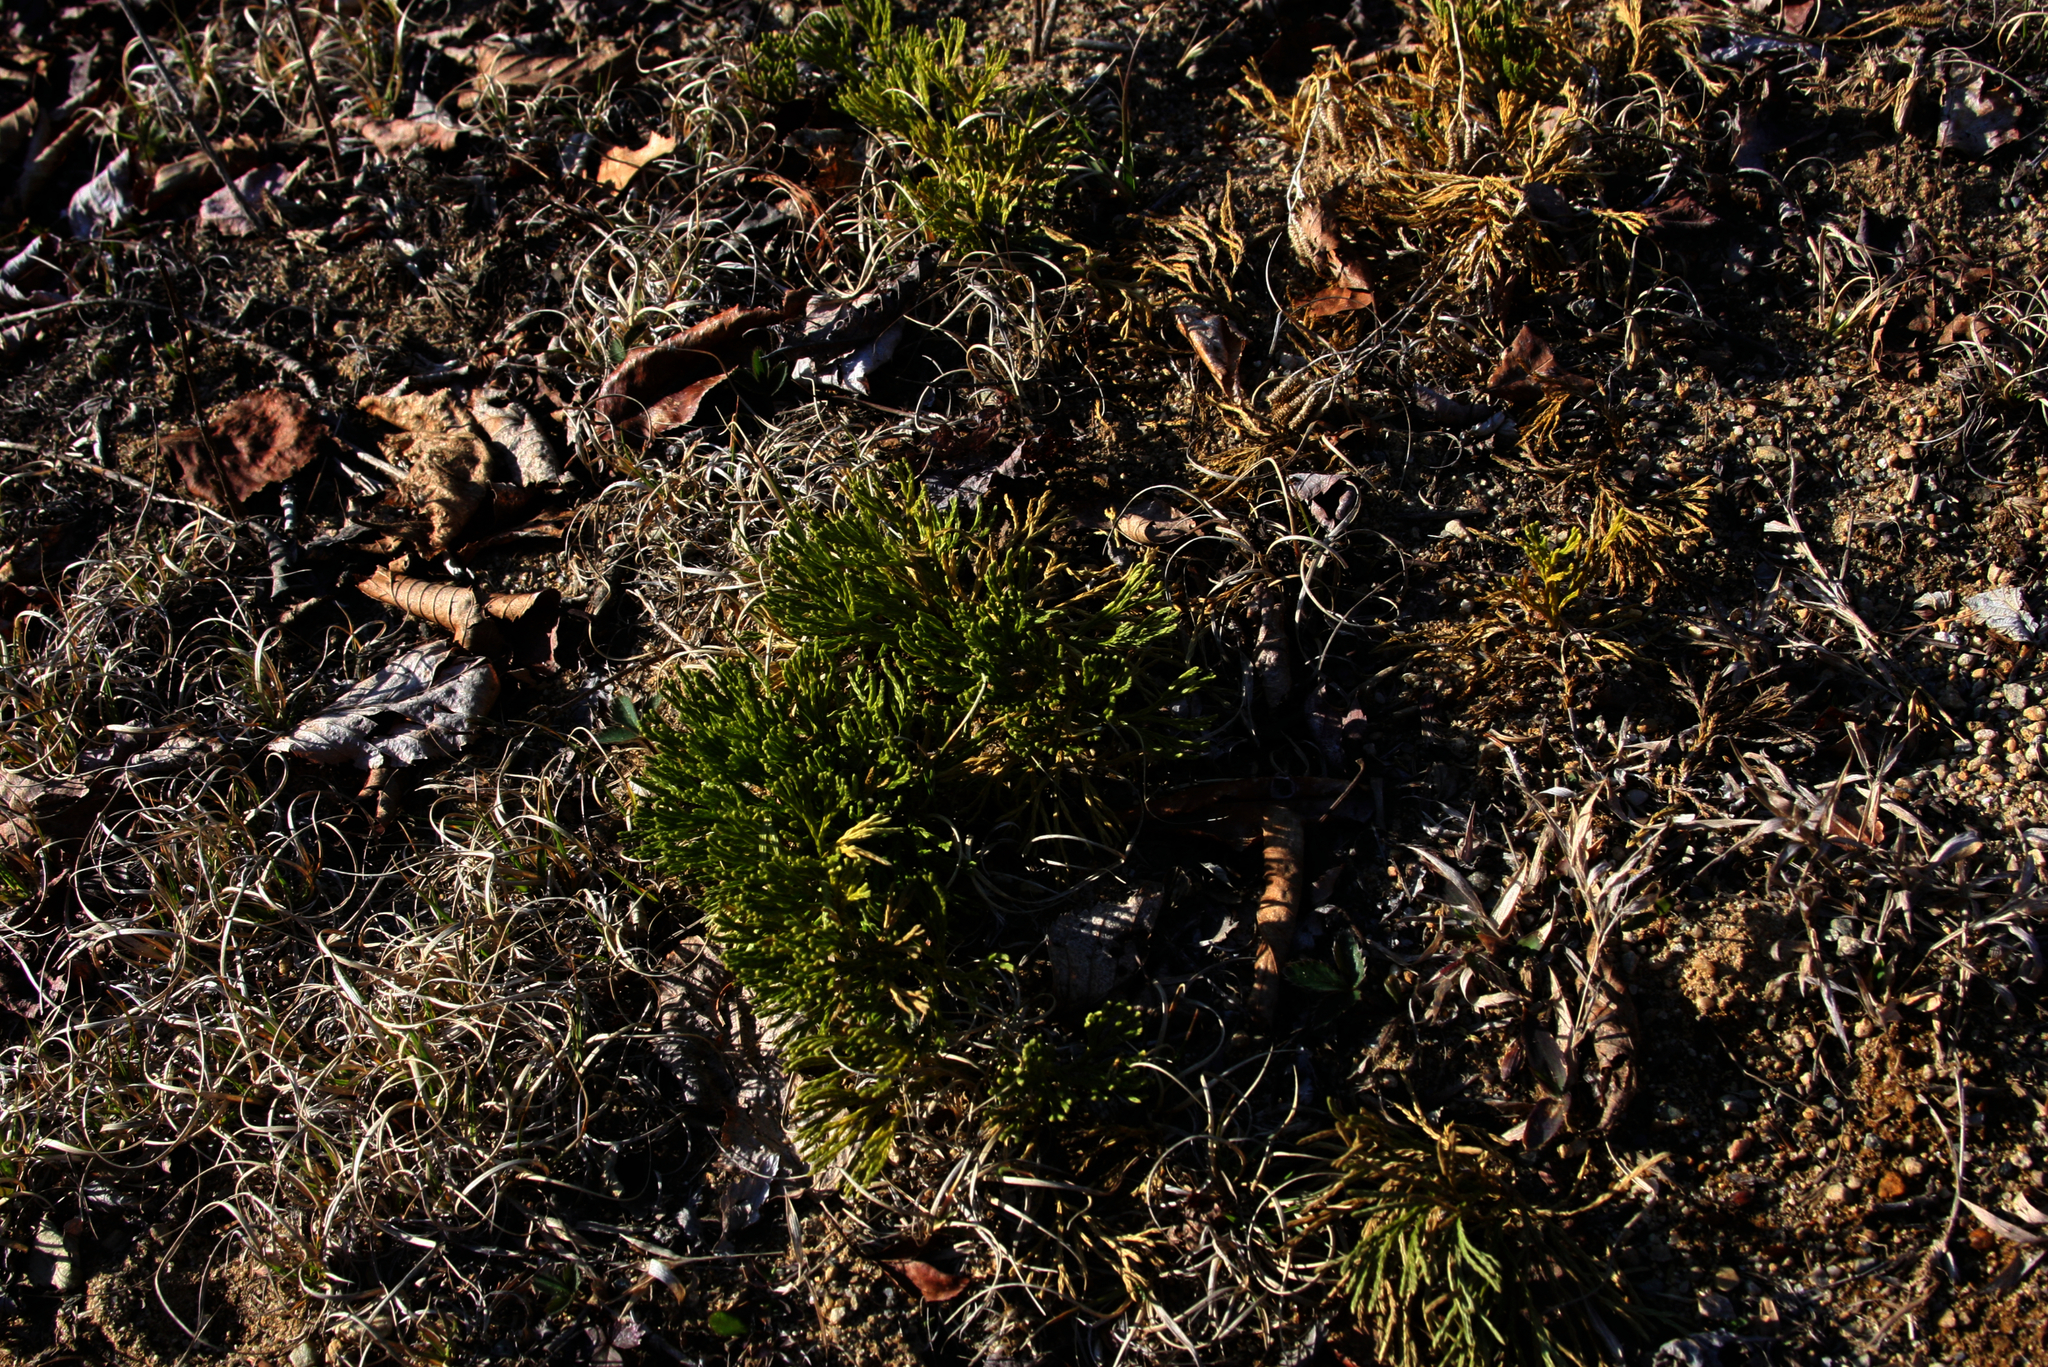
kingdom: Plantae
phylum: Tracheophyta
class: Lycopodiopsida
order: Lycopodiales
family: Lycopodiaceae
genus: Diphasiastrum
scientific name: Diphasiastrum tristachyum
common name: Blue ground-cedar
